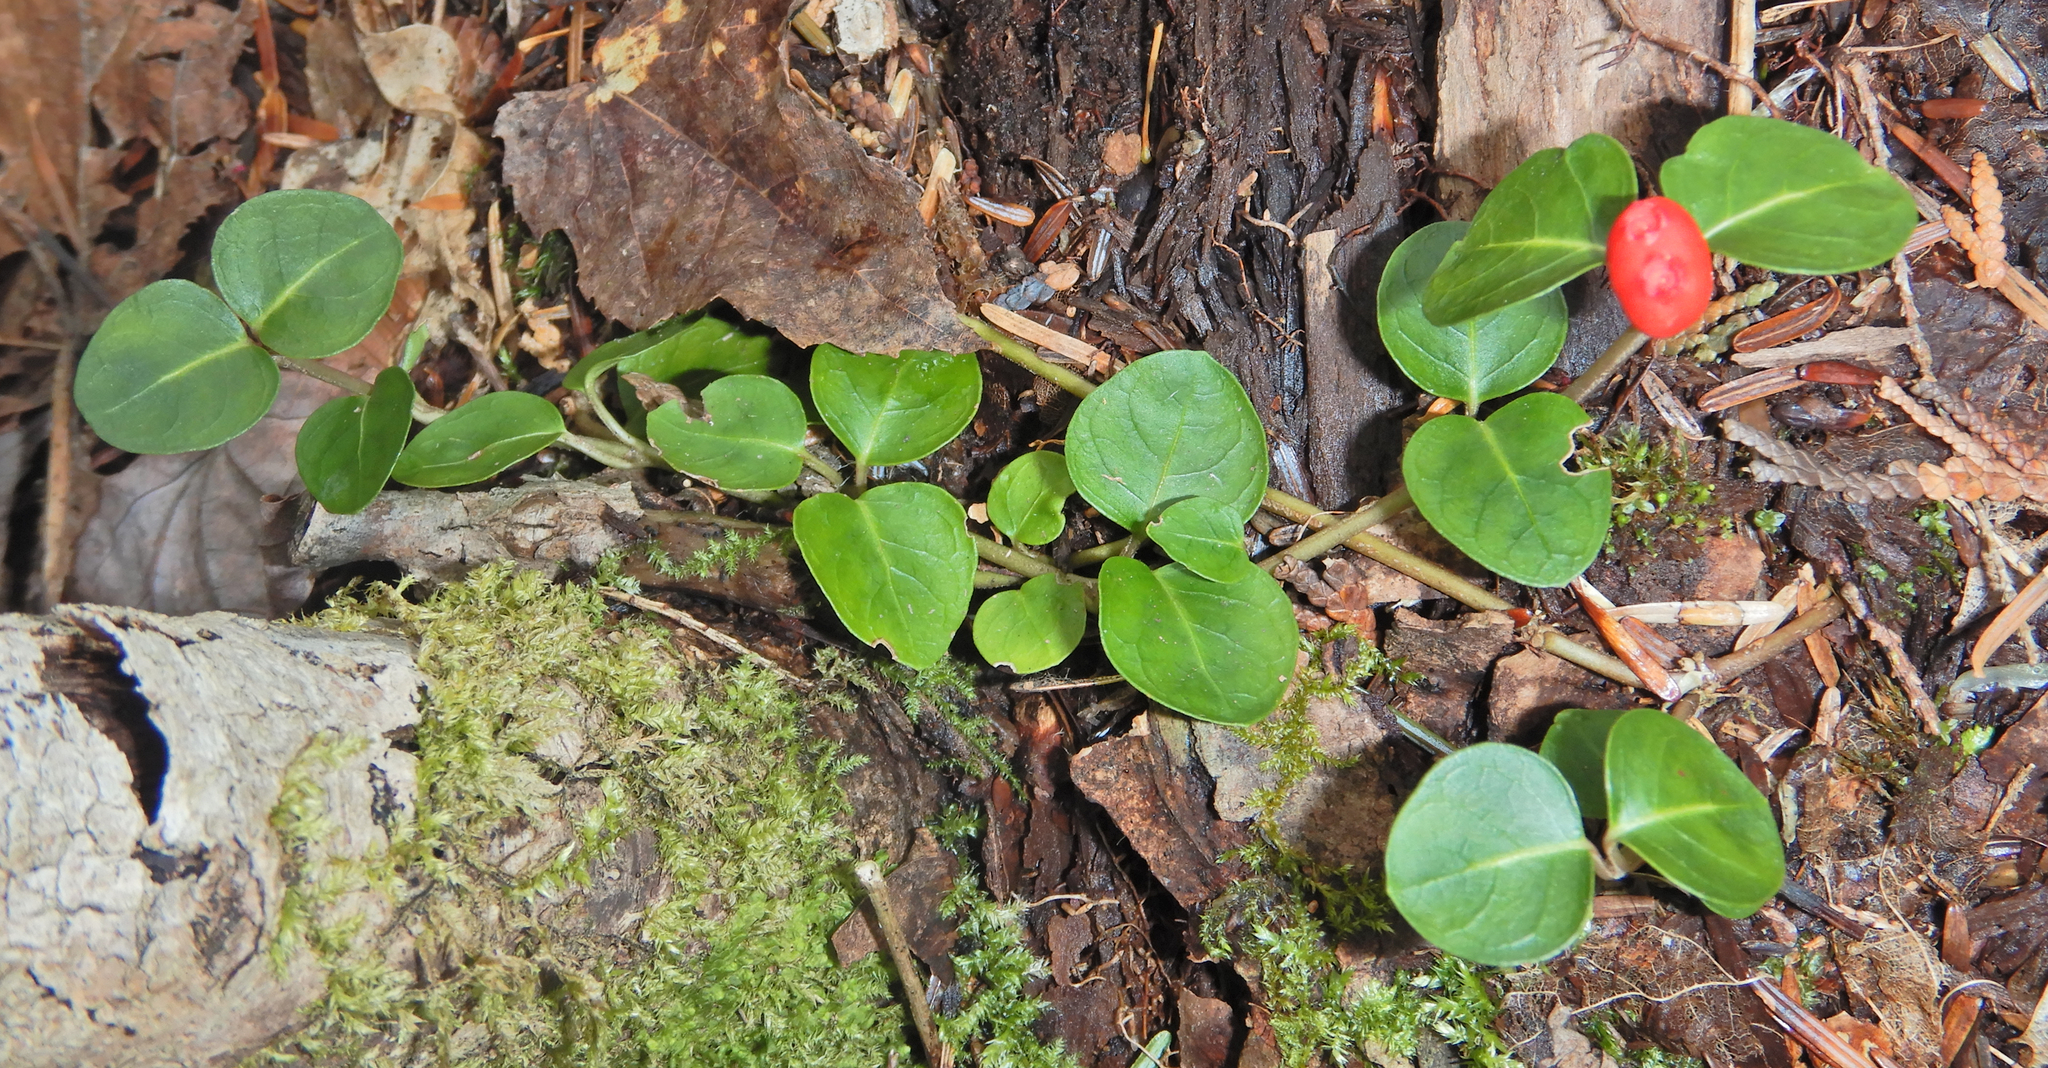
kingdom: Plantae
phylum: Tracheophyta
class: Magnoliopsida
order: Gentianales
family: Rubiaceae
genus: Mitchella
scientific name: Mitchella repens
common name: Partridge-berry
